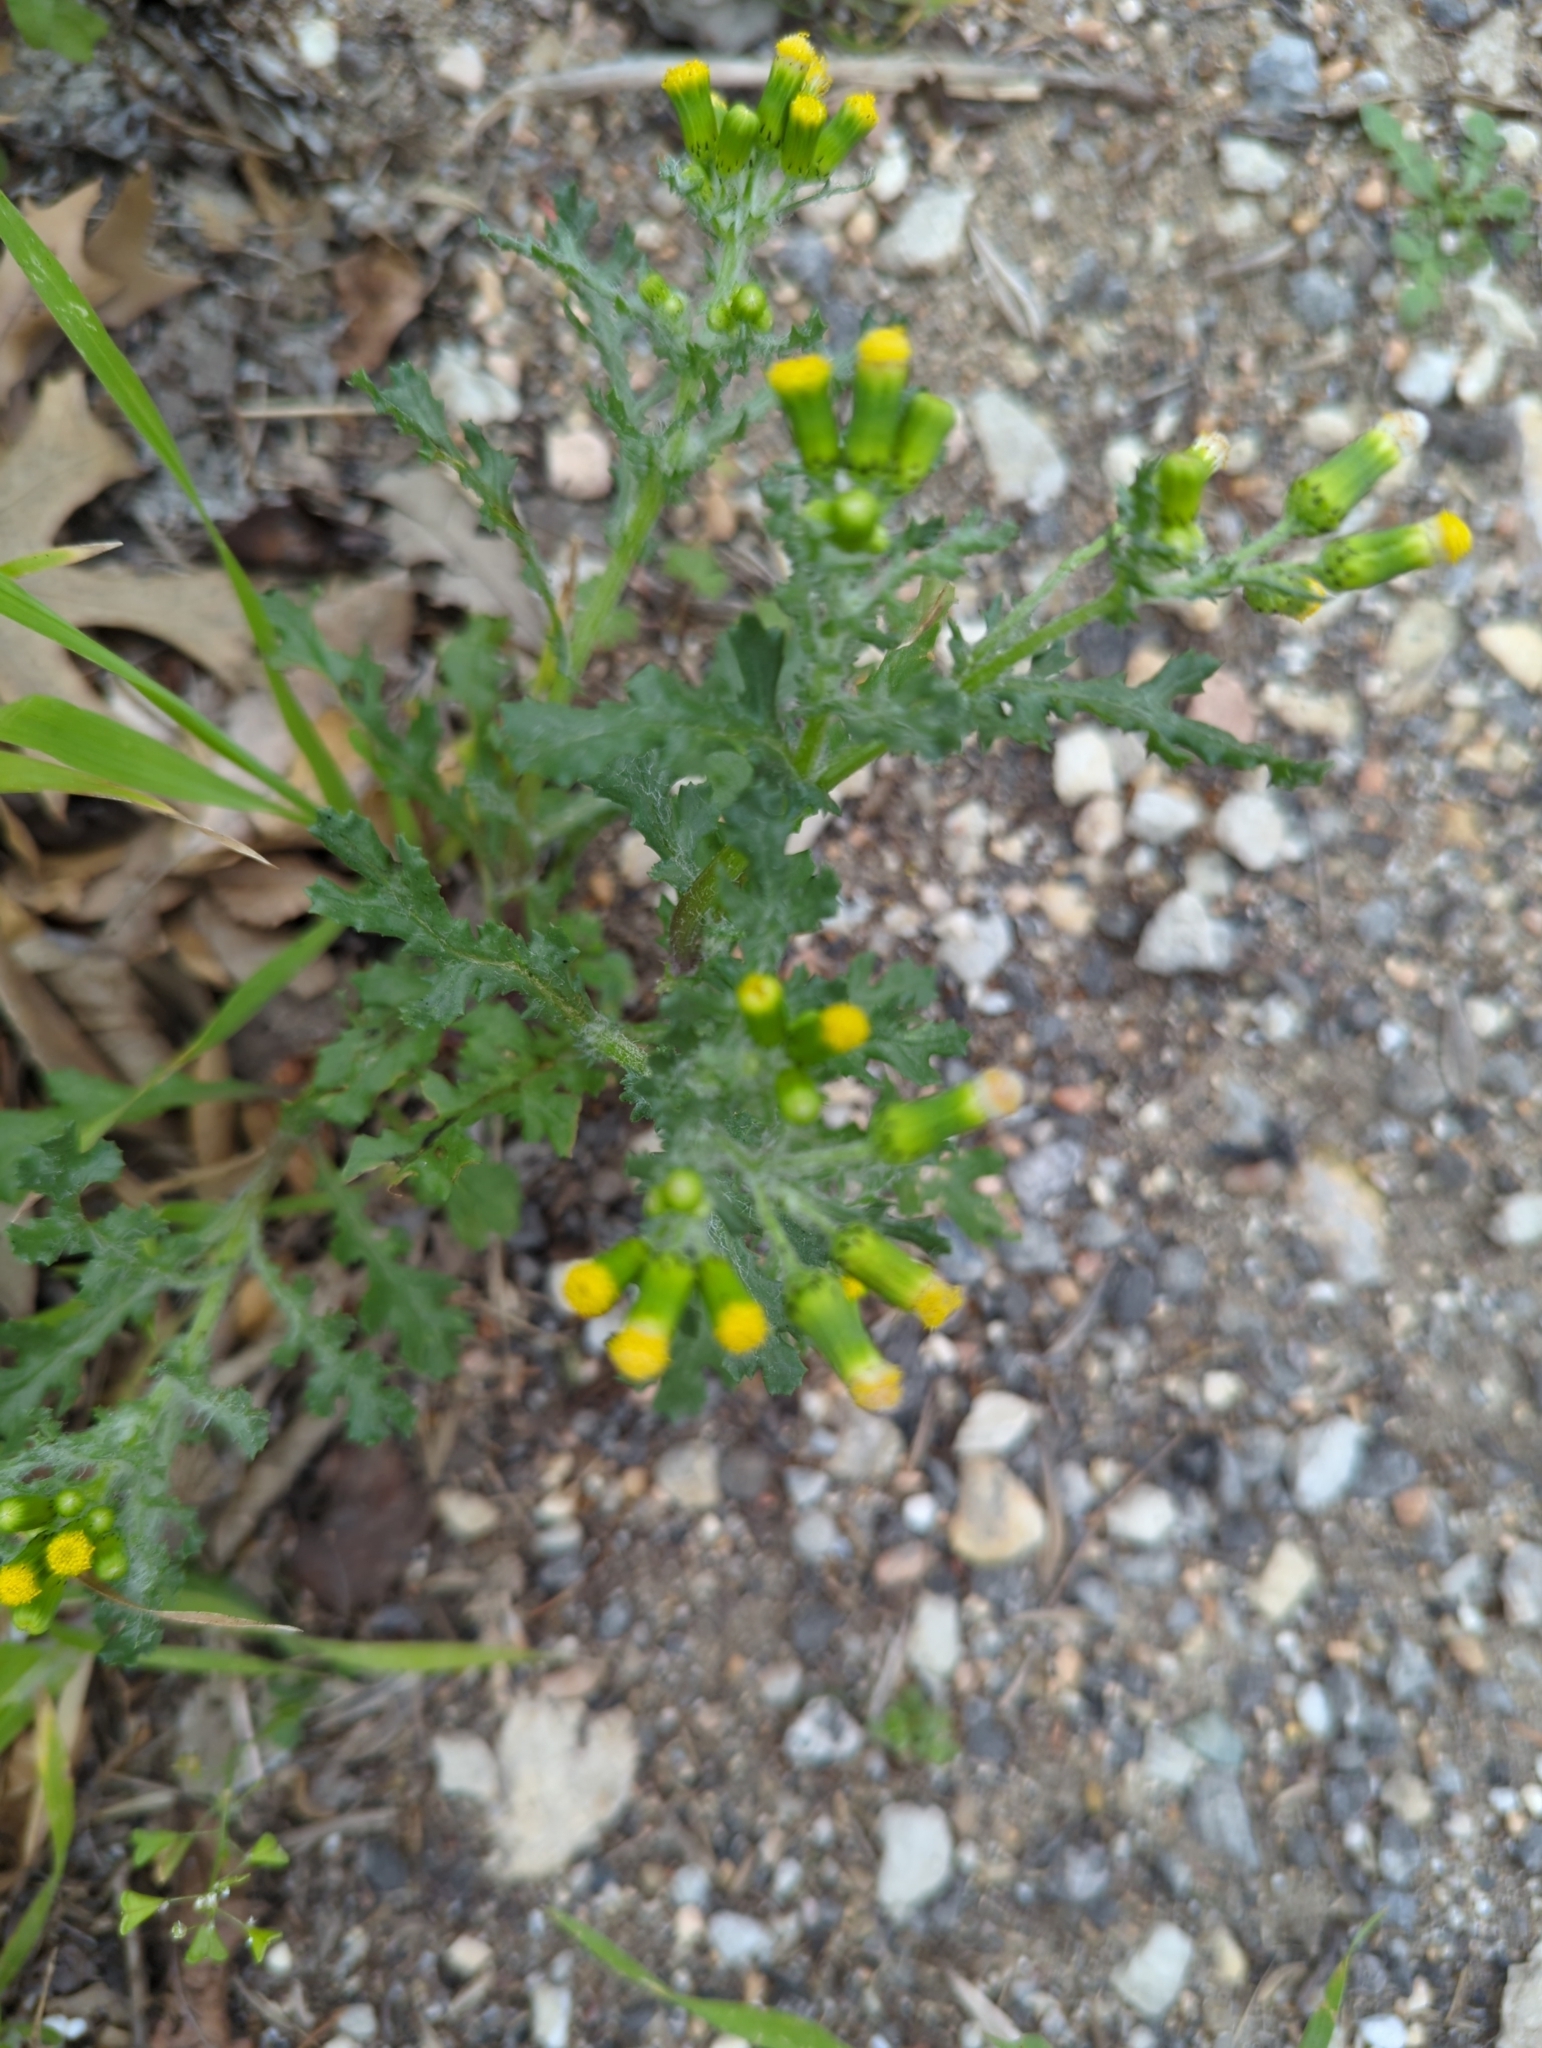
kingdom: Plantae
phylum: Tracheophyta
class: Magnoliopsida
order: Asterales
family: Asteraceae
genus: Senecio
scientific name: Senecio vulgaris
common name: Old-man-in-the-spring
